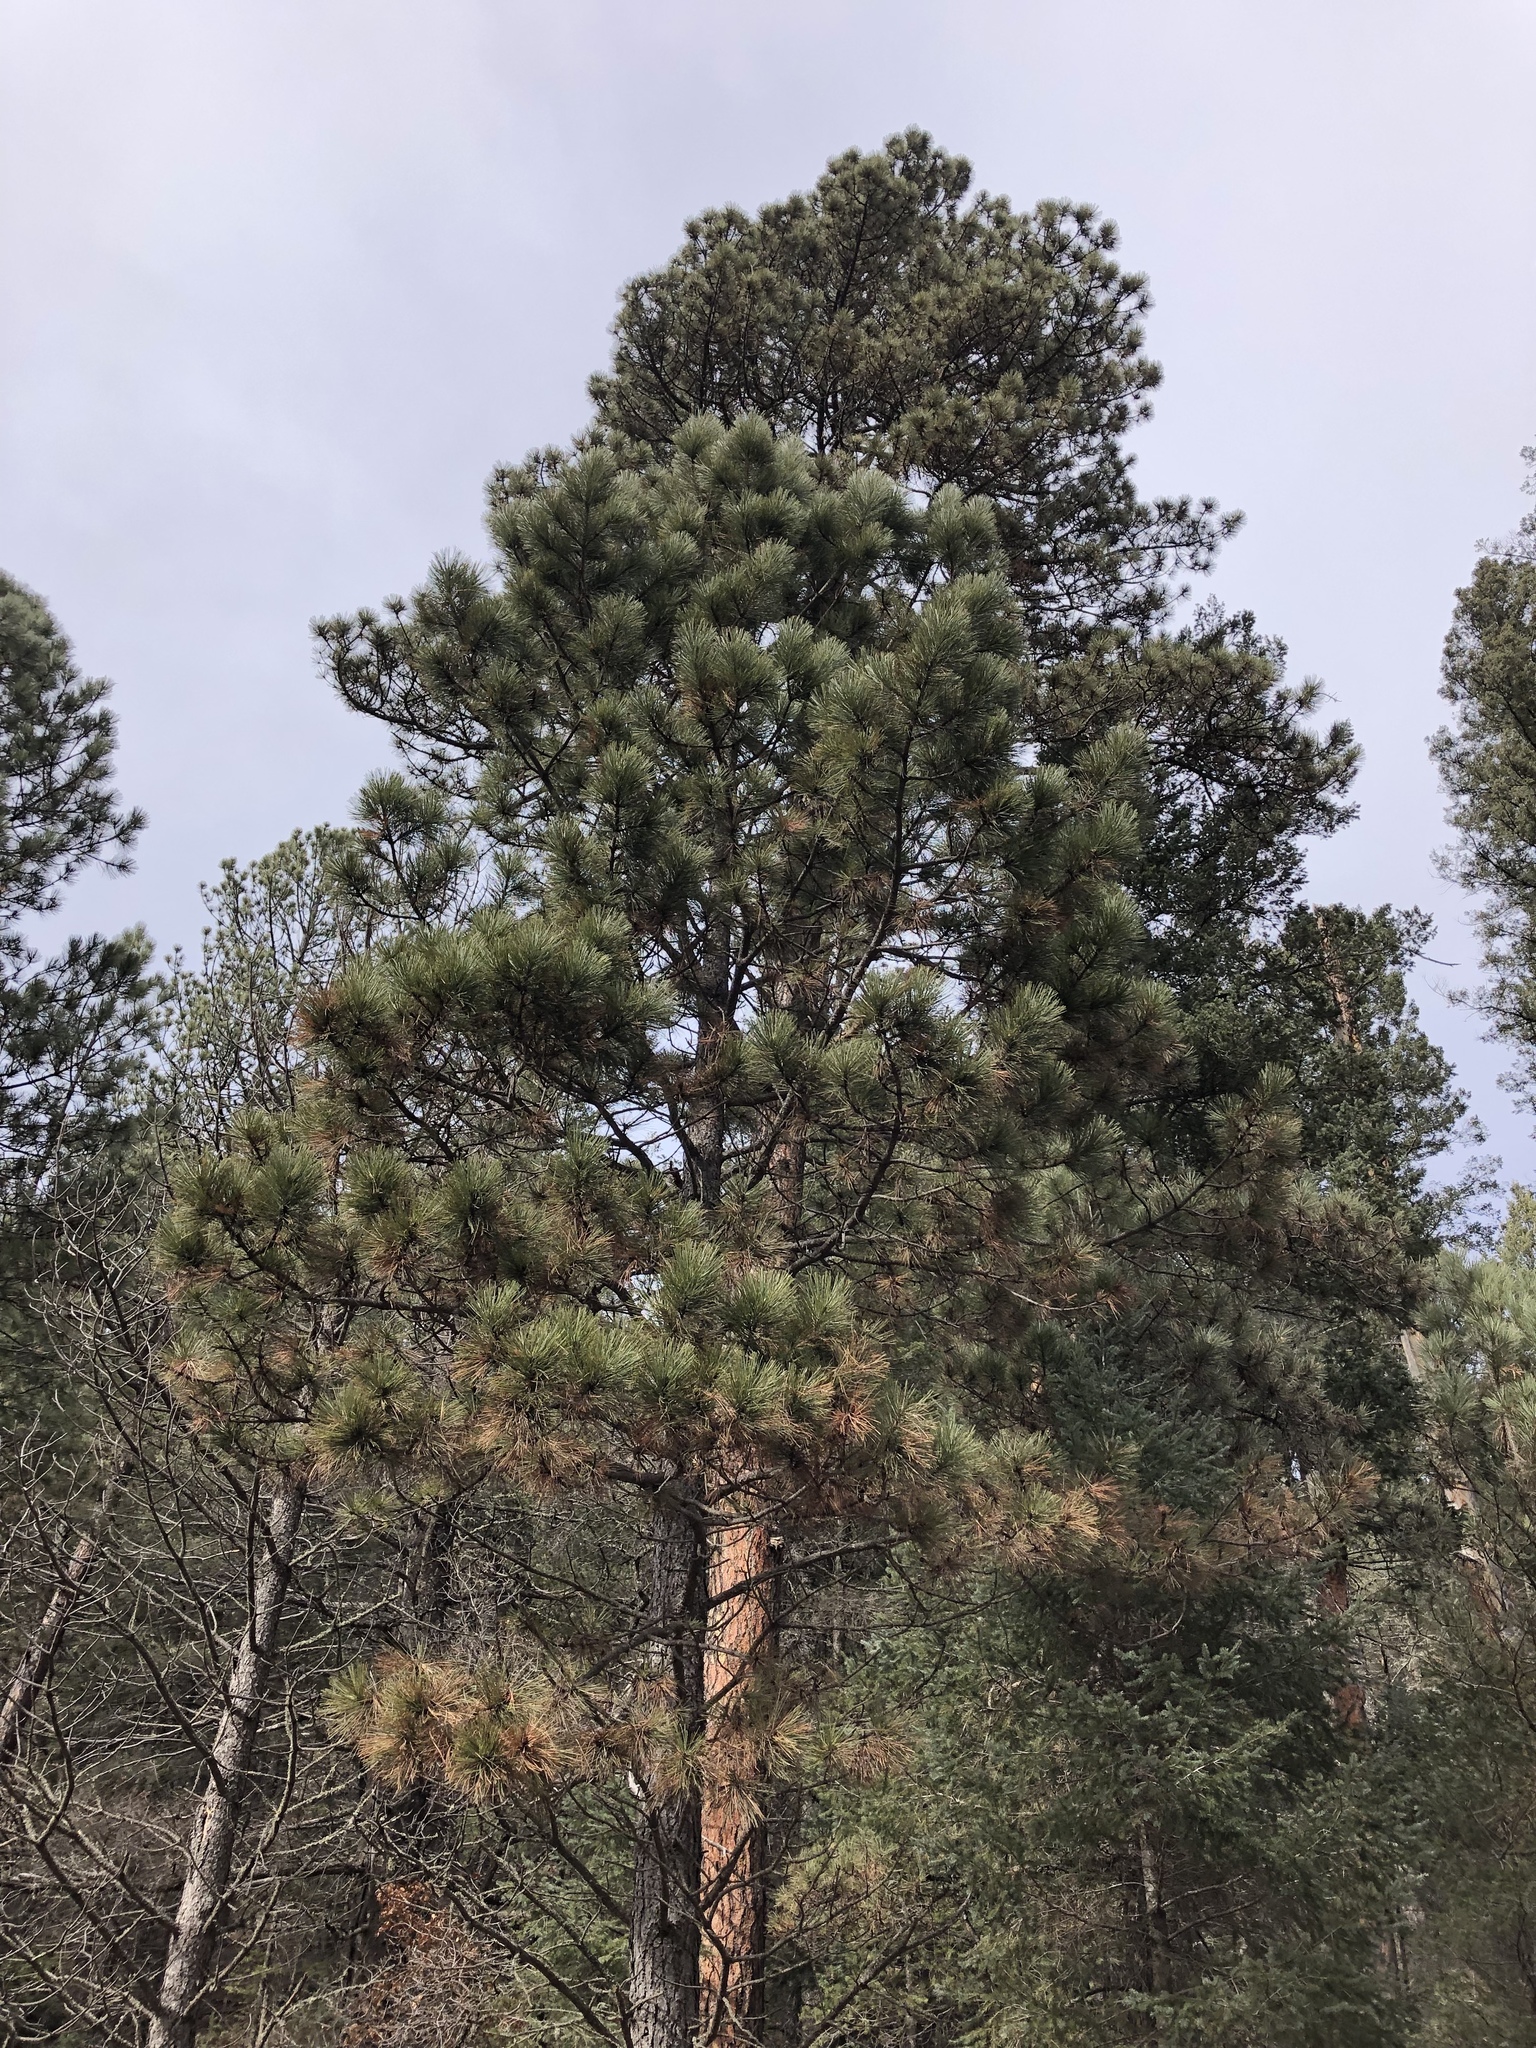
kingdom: Plantae
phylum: Tracheophyta
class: Pinopsida
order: Pinales
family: Pinaceae
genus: Pinus
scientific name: Pinus ponderosa
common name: Western yellow-pine
